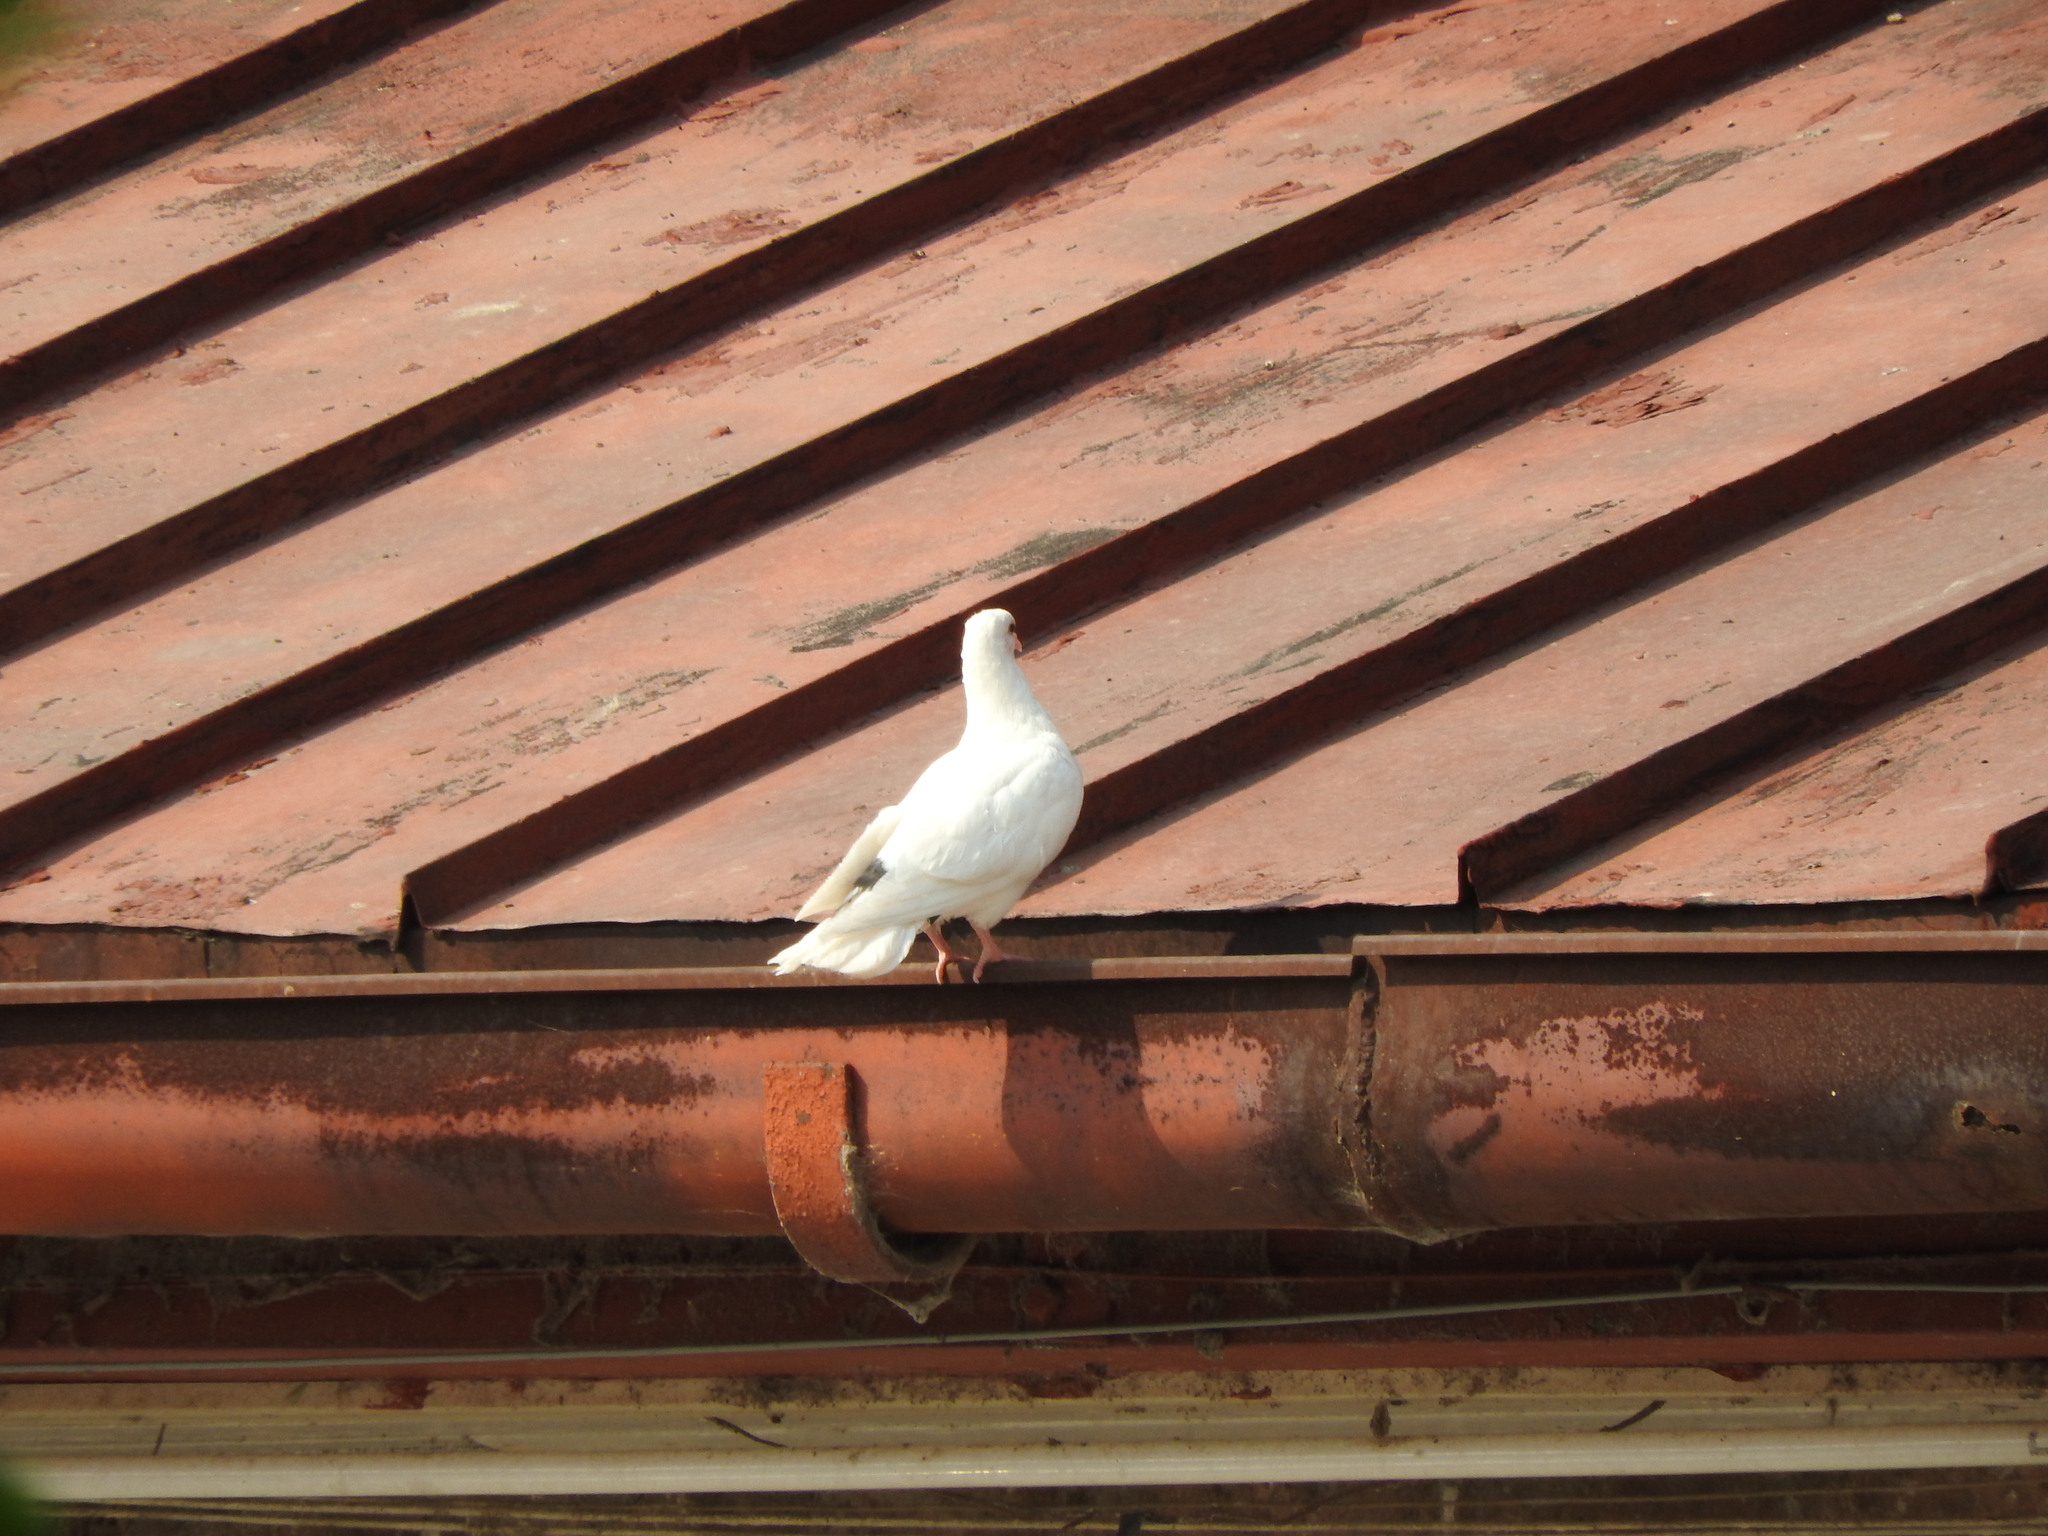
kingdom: Animalia
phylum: Chordata
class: Aves
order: Columbiformes
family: Columbidae
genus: Columba
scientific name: Columba livia
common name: Rock pigeon
